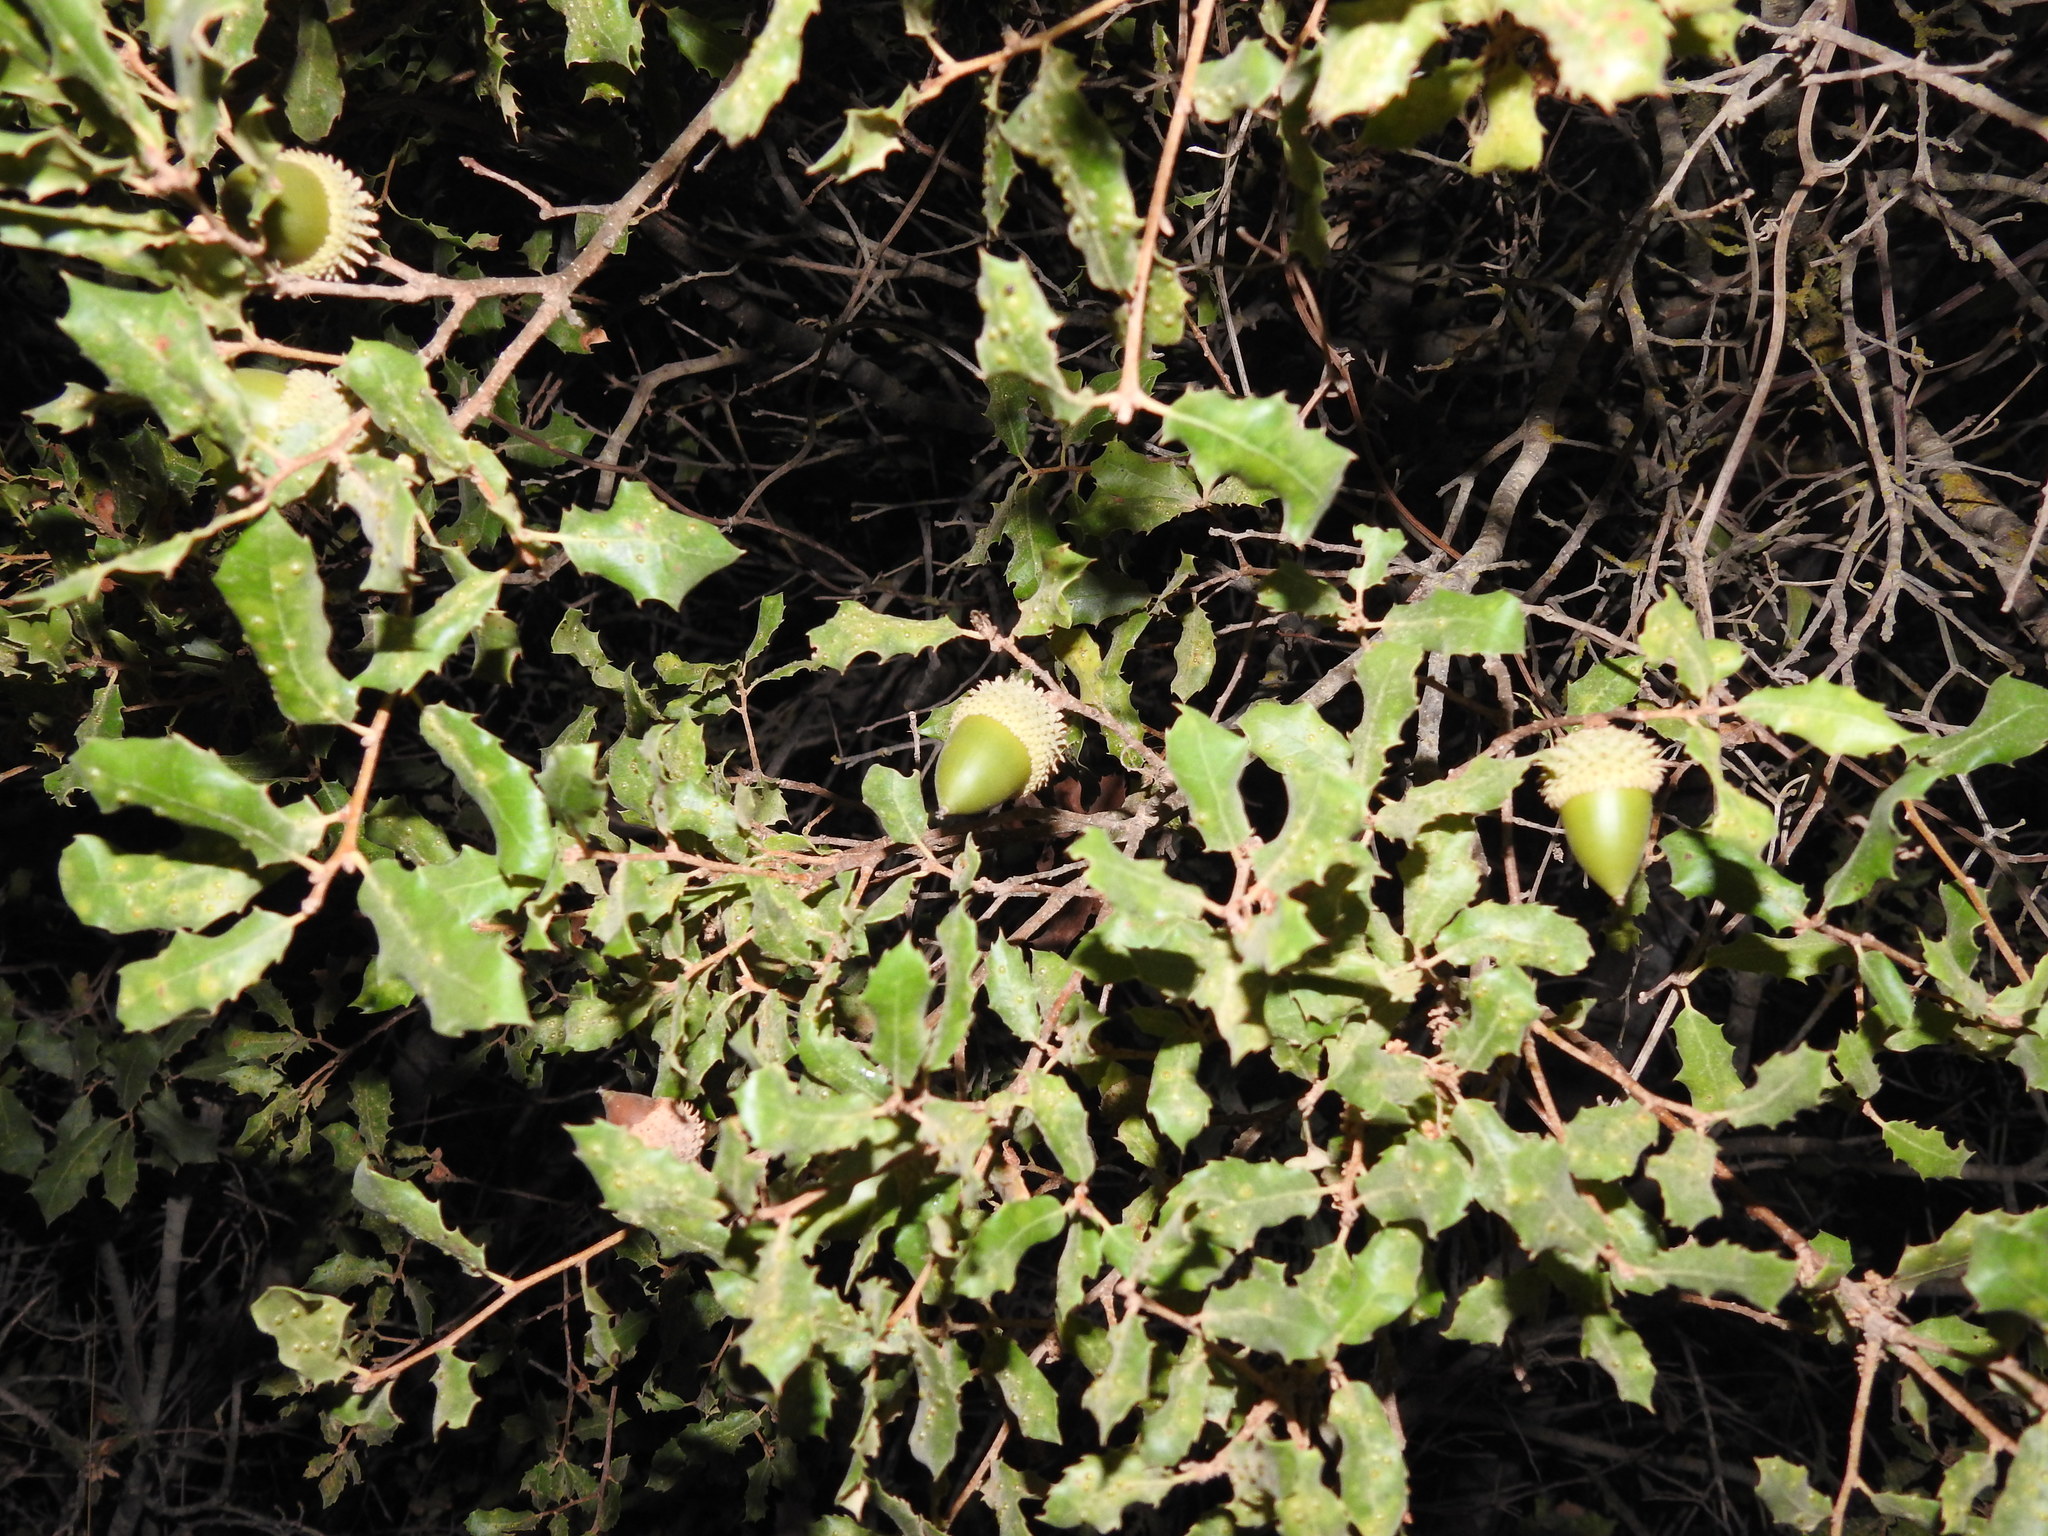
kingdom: Plantae
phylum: Tracheophyta
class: Magnoliopsida
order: Fagales
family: Fagaceae
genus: Quercus
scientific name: Quercus coccifera
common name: Kermes oak
